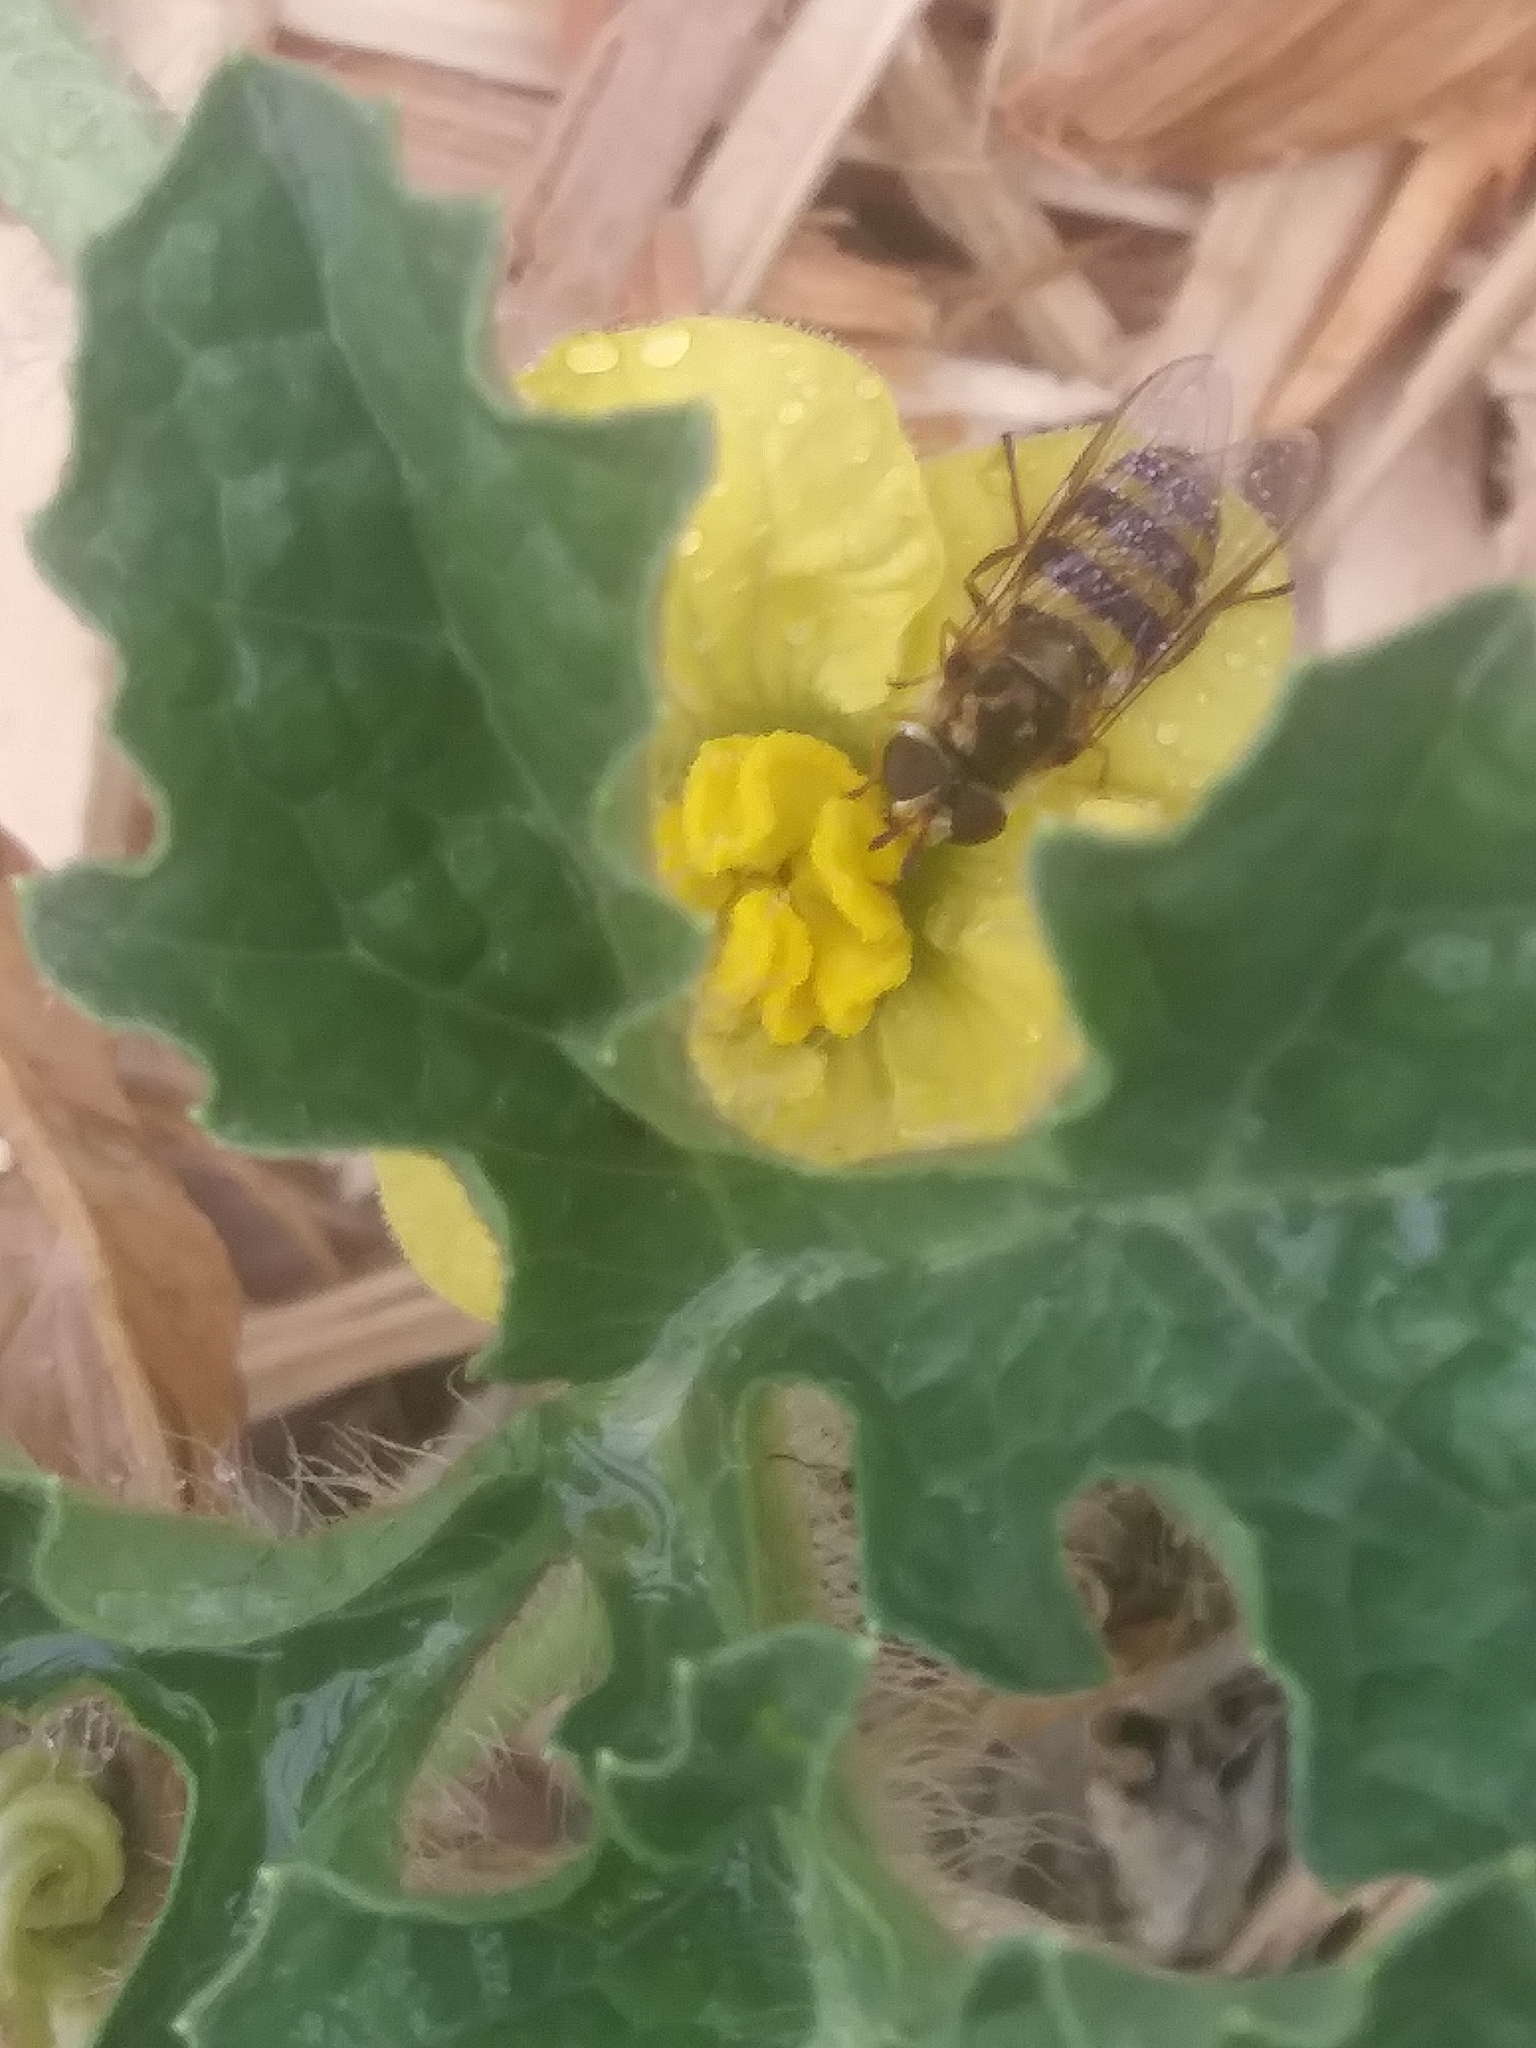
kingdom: Animalia
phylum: Arthropoda
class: Insecta
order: Diptera
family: Syrphidae
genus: Eupeodes
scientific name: Eupeodes
